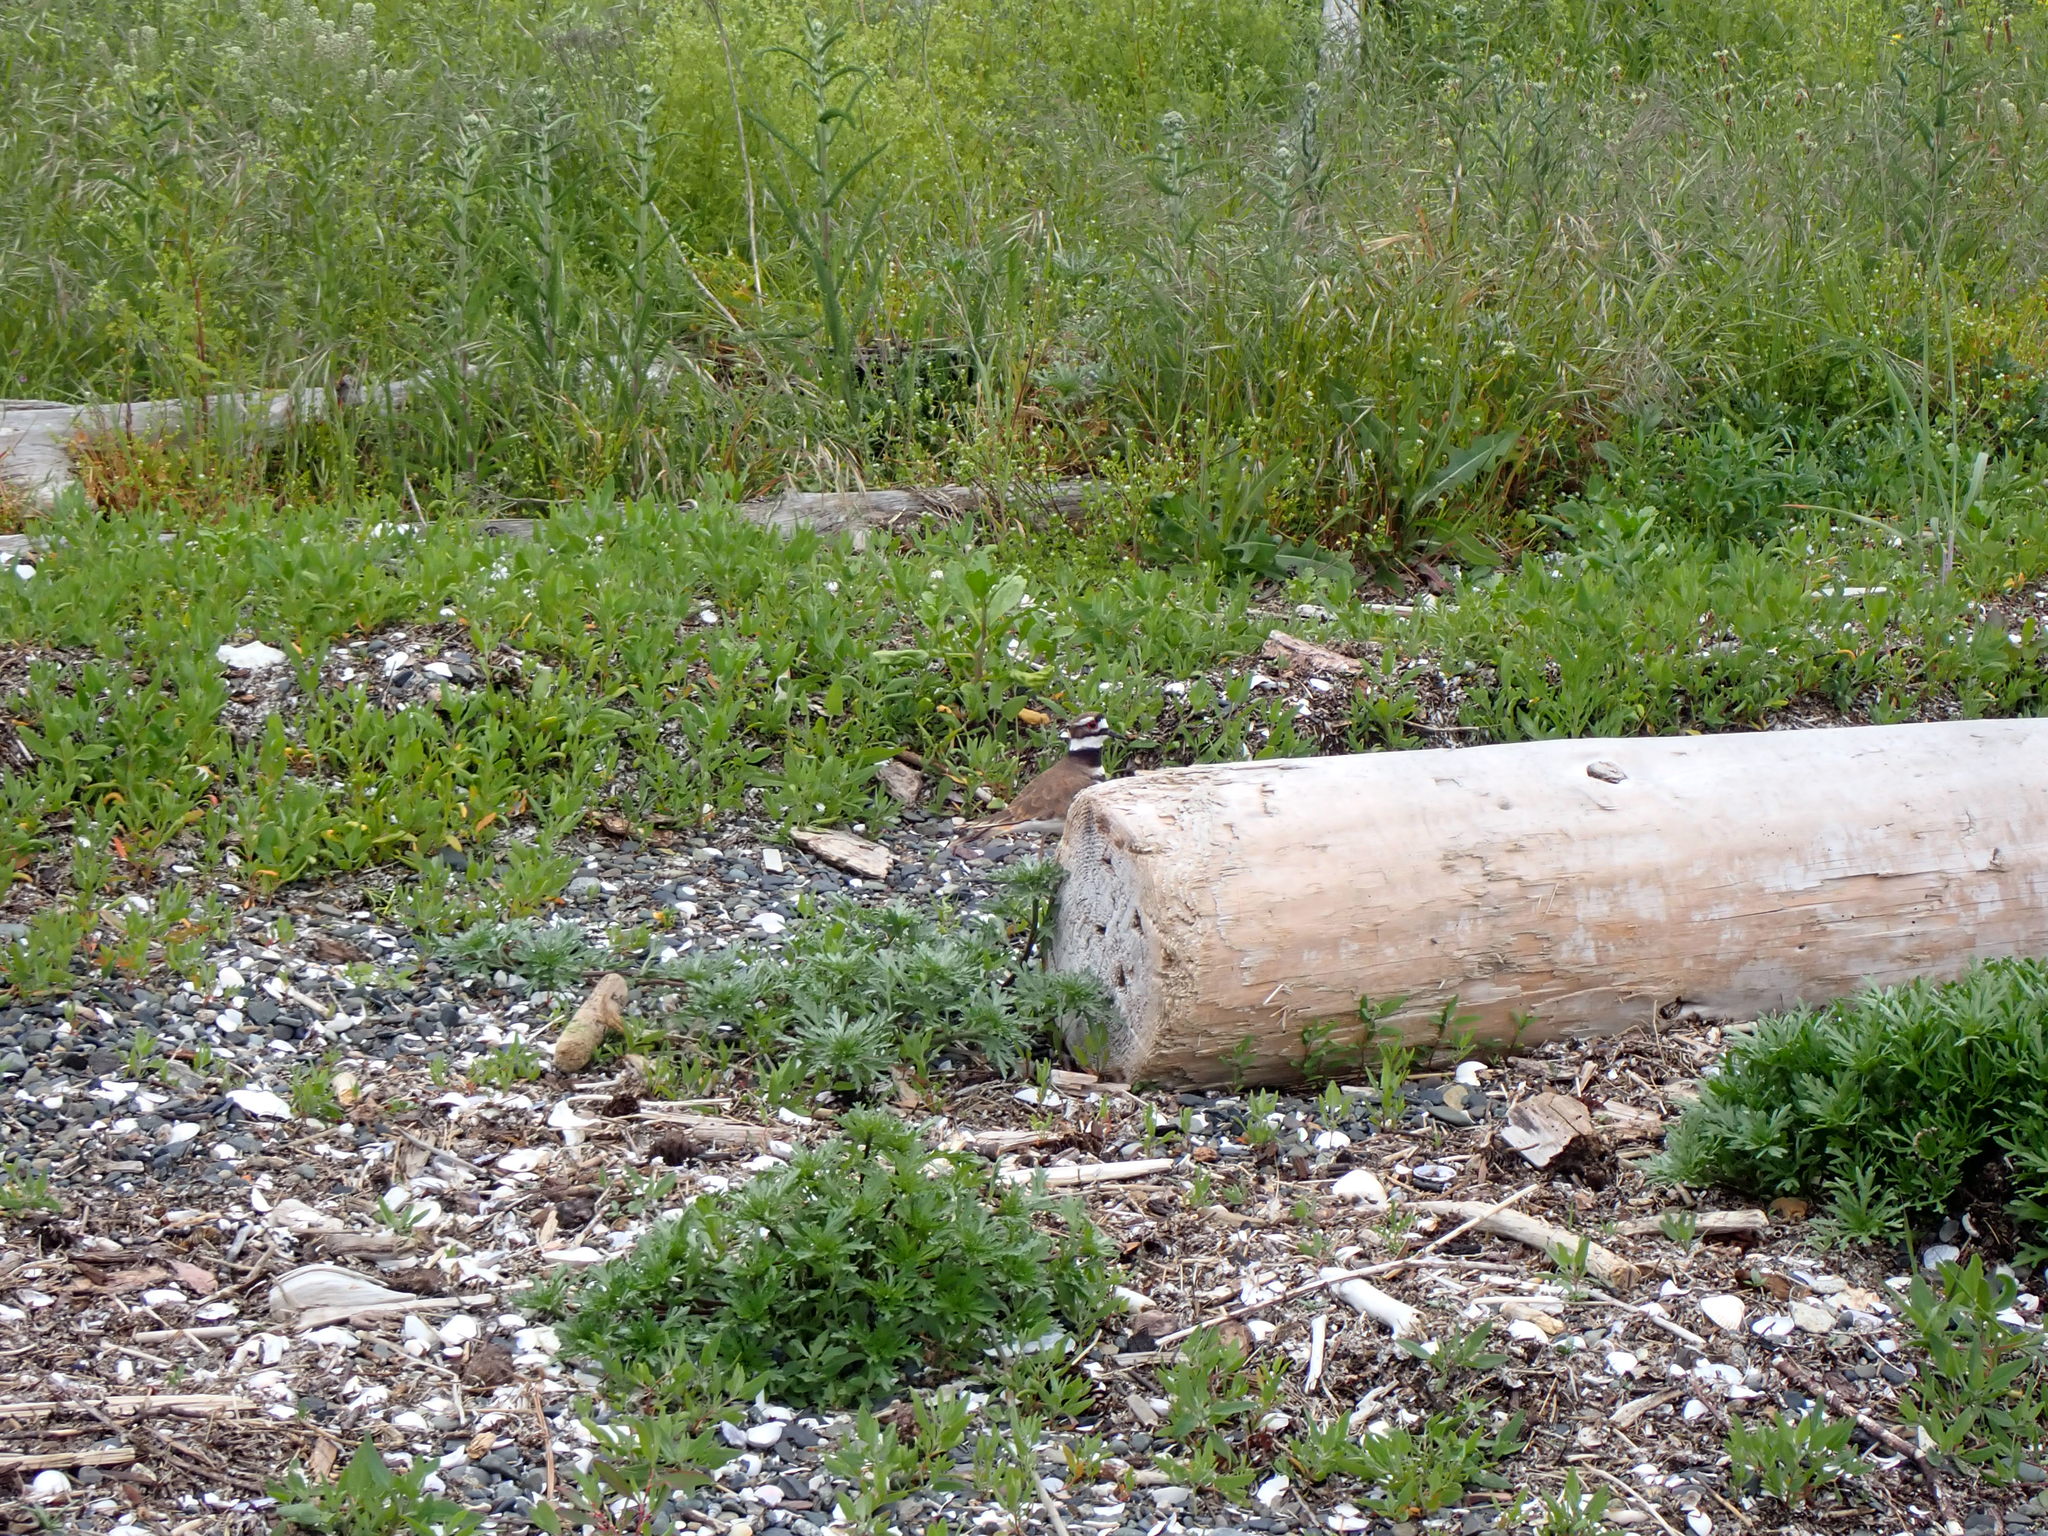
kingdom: Animalia
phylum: Chordata
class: Aves
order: Charadriiformes
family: Charadriidae
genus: Charadrius
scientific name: Charadrius vociferus
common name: Killdeer
